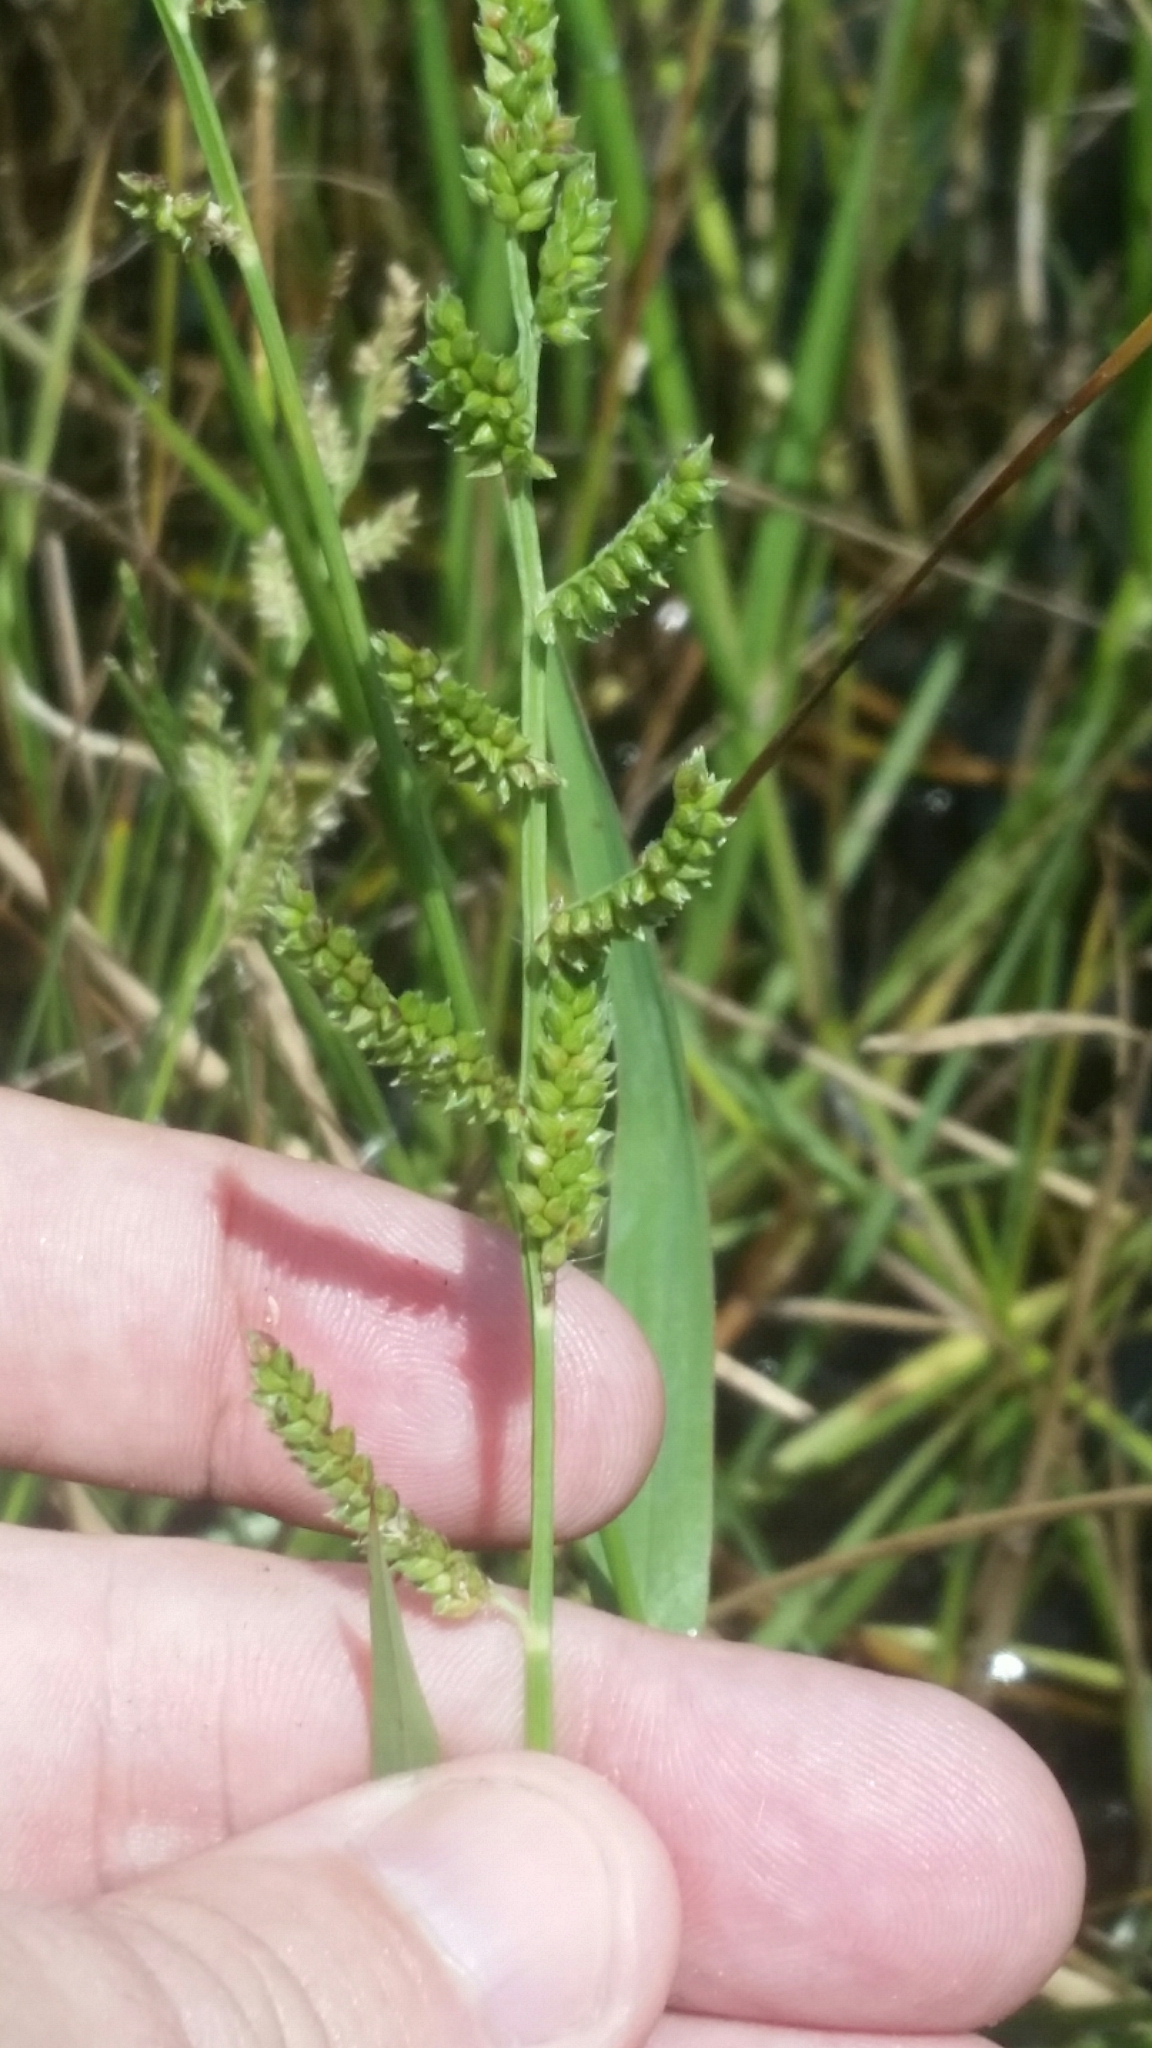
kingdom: Plantae
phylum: Tracheophyta
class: Liliopsida
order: Poales
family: Poaceae
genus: Echinochloa
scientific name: Echinochloa colonum
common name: Jungle rice
